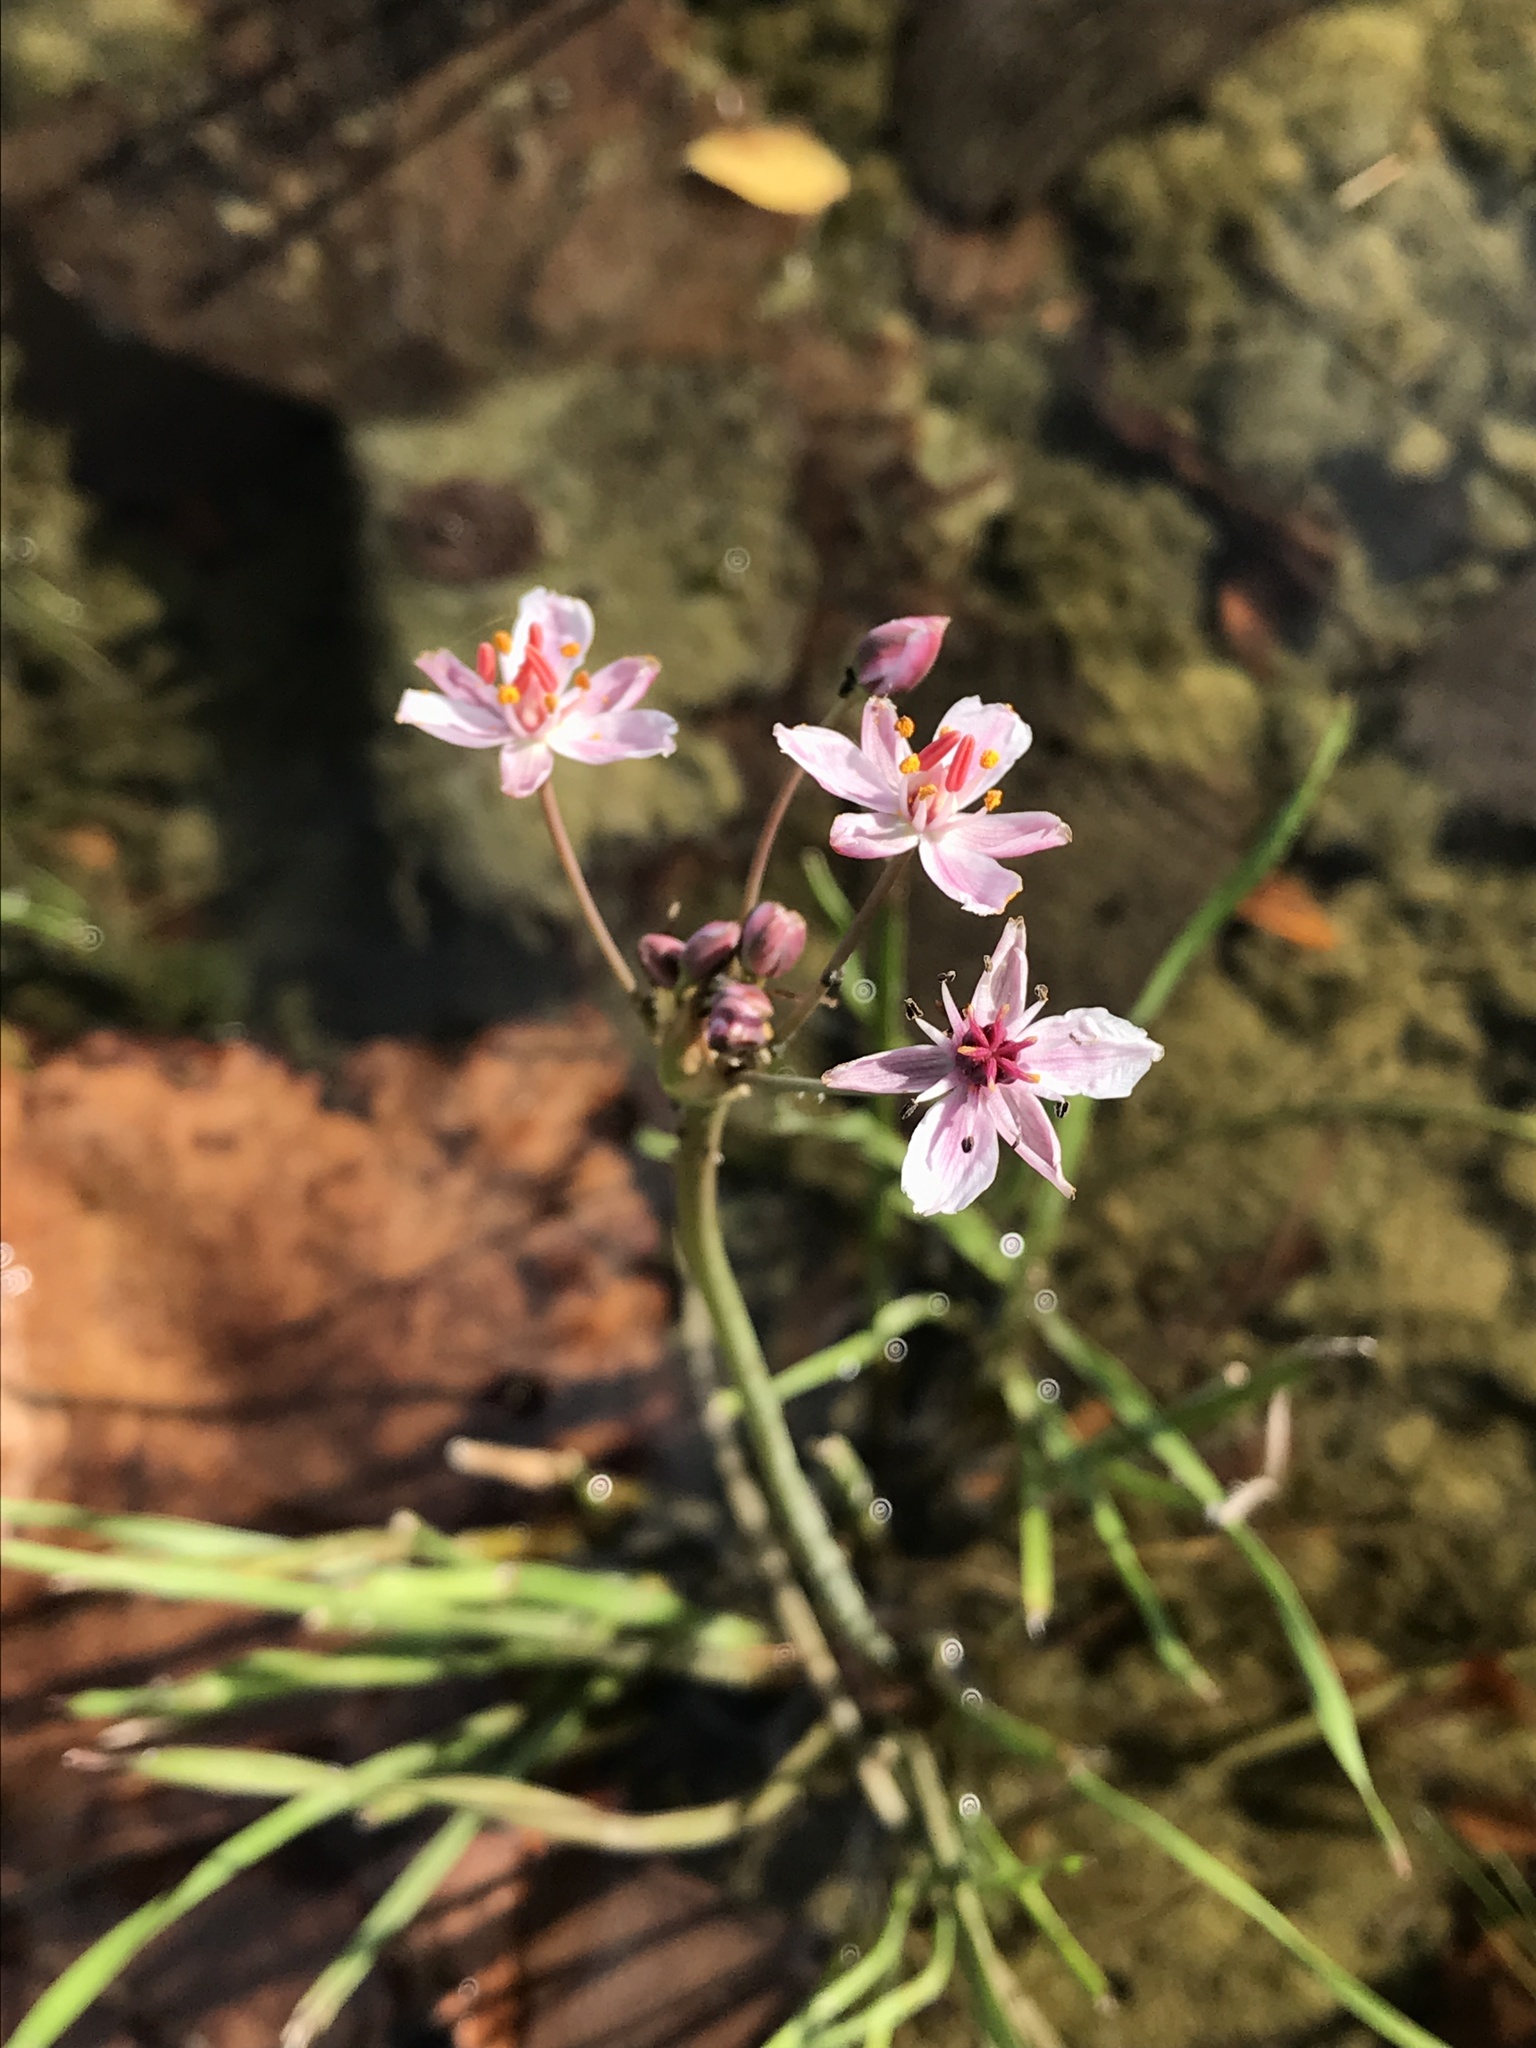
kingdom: Plantae
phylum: Tracheophyta
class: Liliopsida
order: Alismatales
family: Butomaceae
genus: Butomus
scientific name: Butomus umbellatus
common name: Flowering-rush
